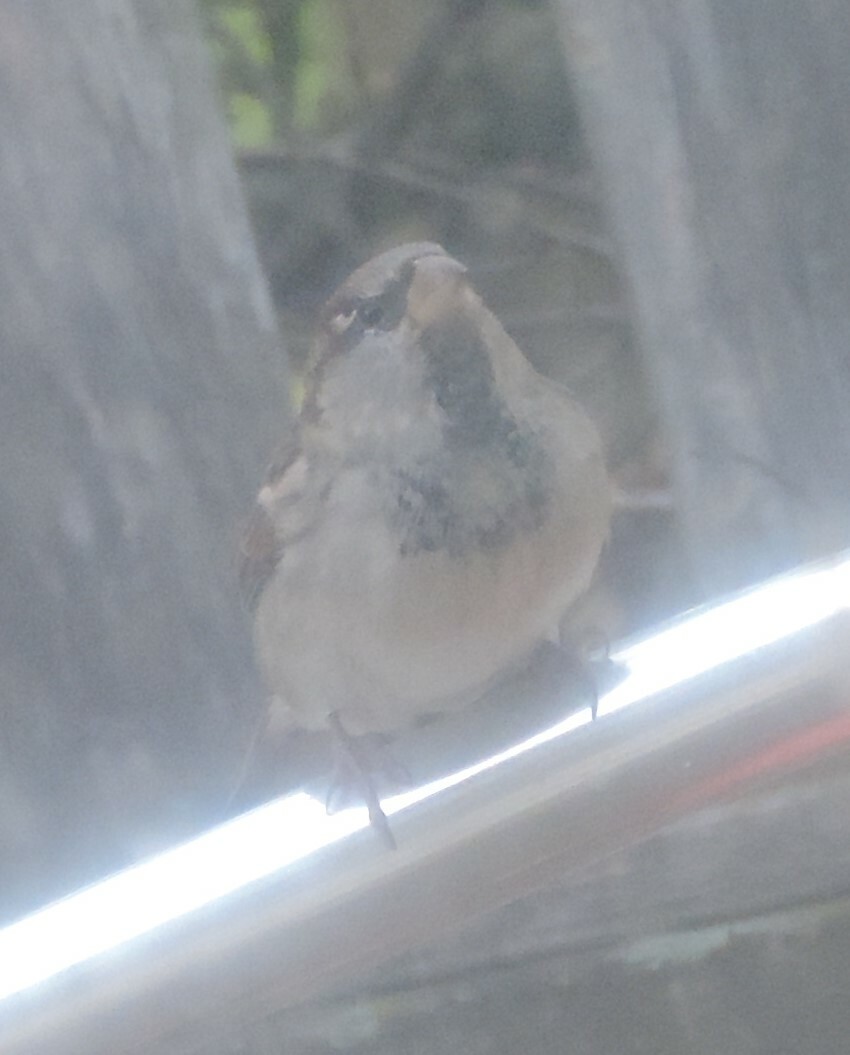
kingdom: Animalia
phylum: Chordata
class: Aves
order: Passeriformes
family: Passeridae
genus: Passer
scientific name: Passer domesticus
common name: House sparrow
